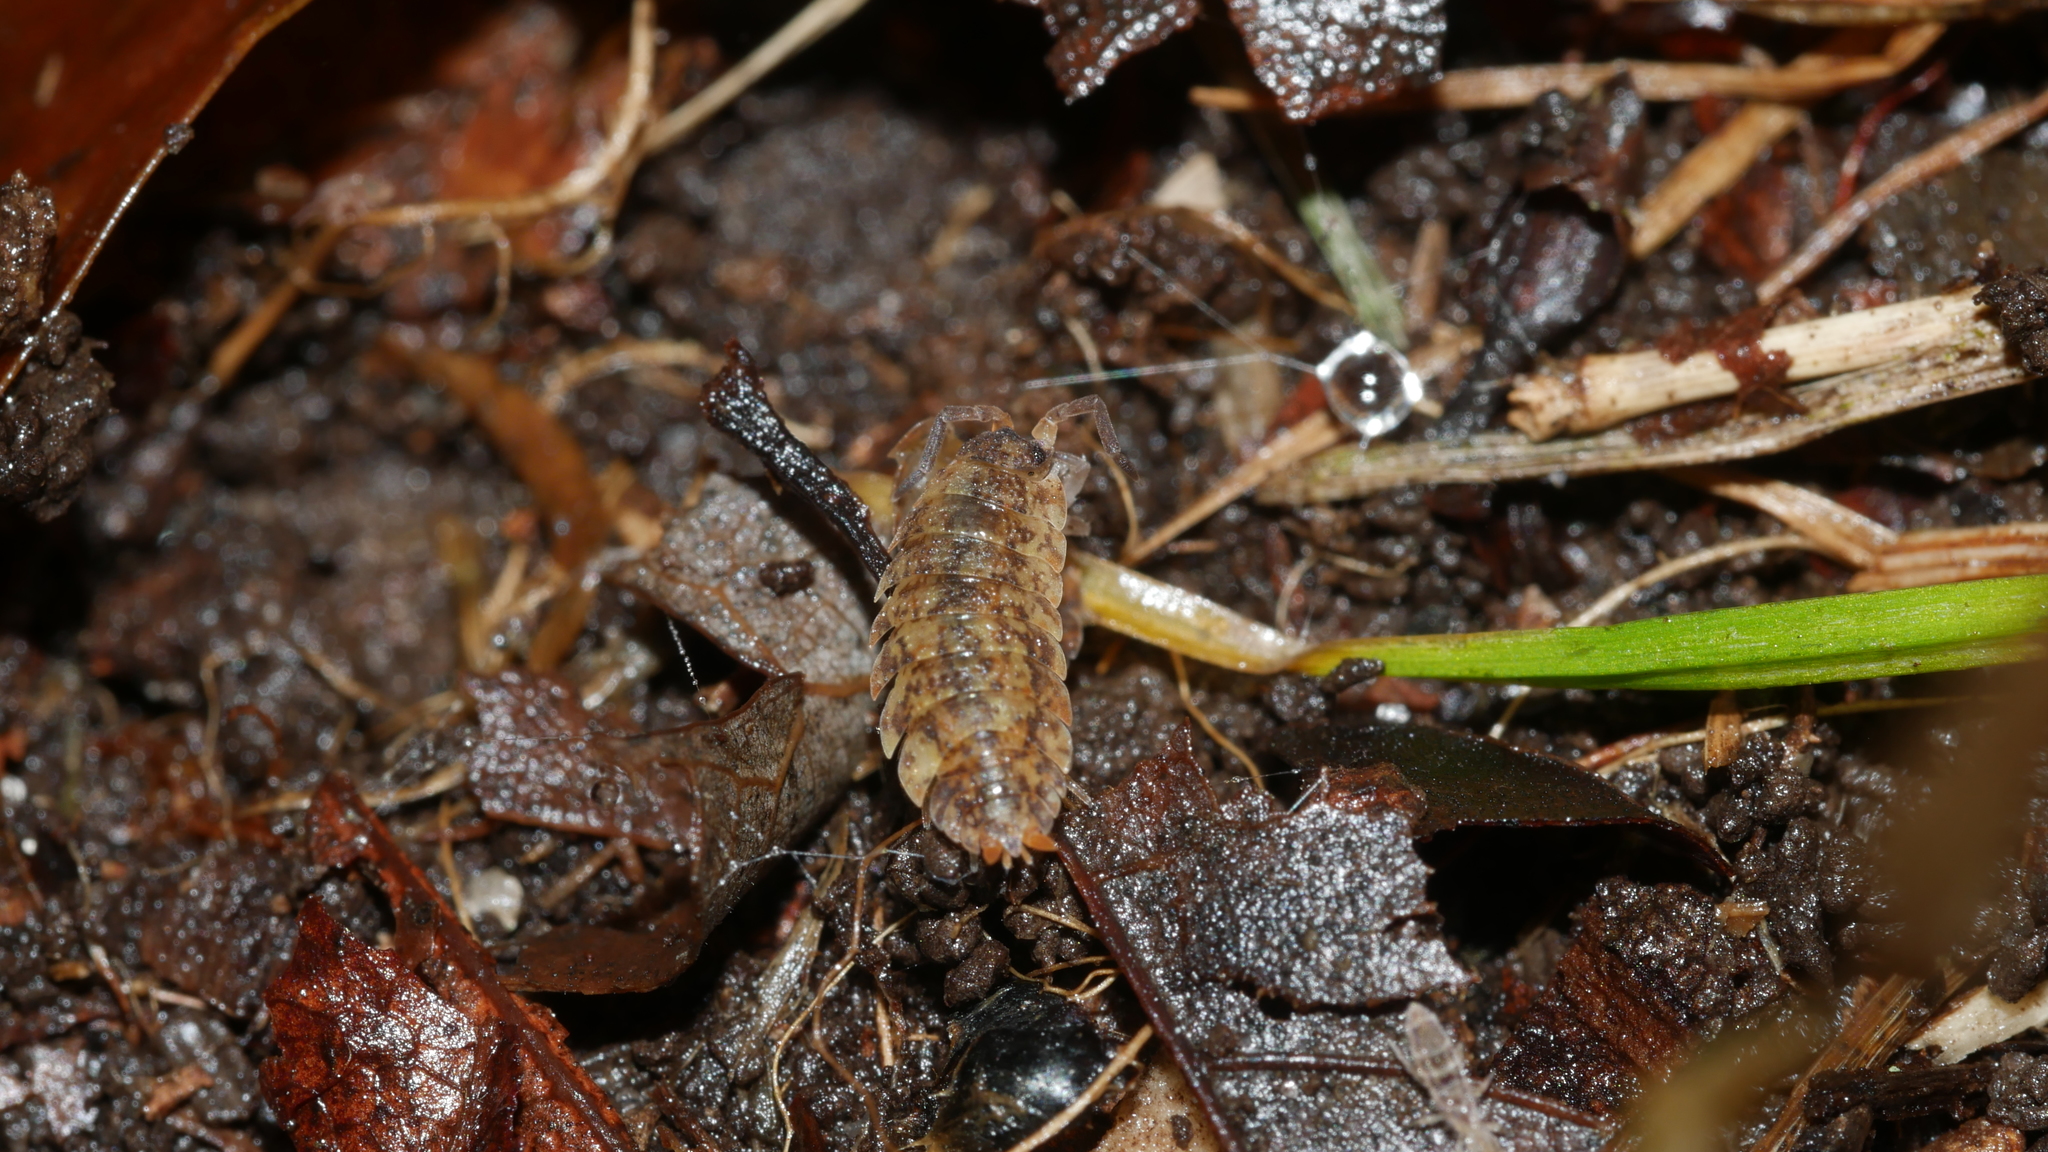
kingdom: Animalia
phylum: Arthropoda
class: Malacostraca
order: Isopoda
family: Porcellionidae
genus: Porcellio
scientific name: Porcellio scaber
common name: Common rough woodlouse
